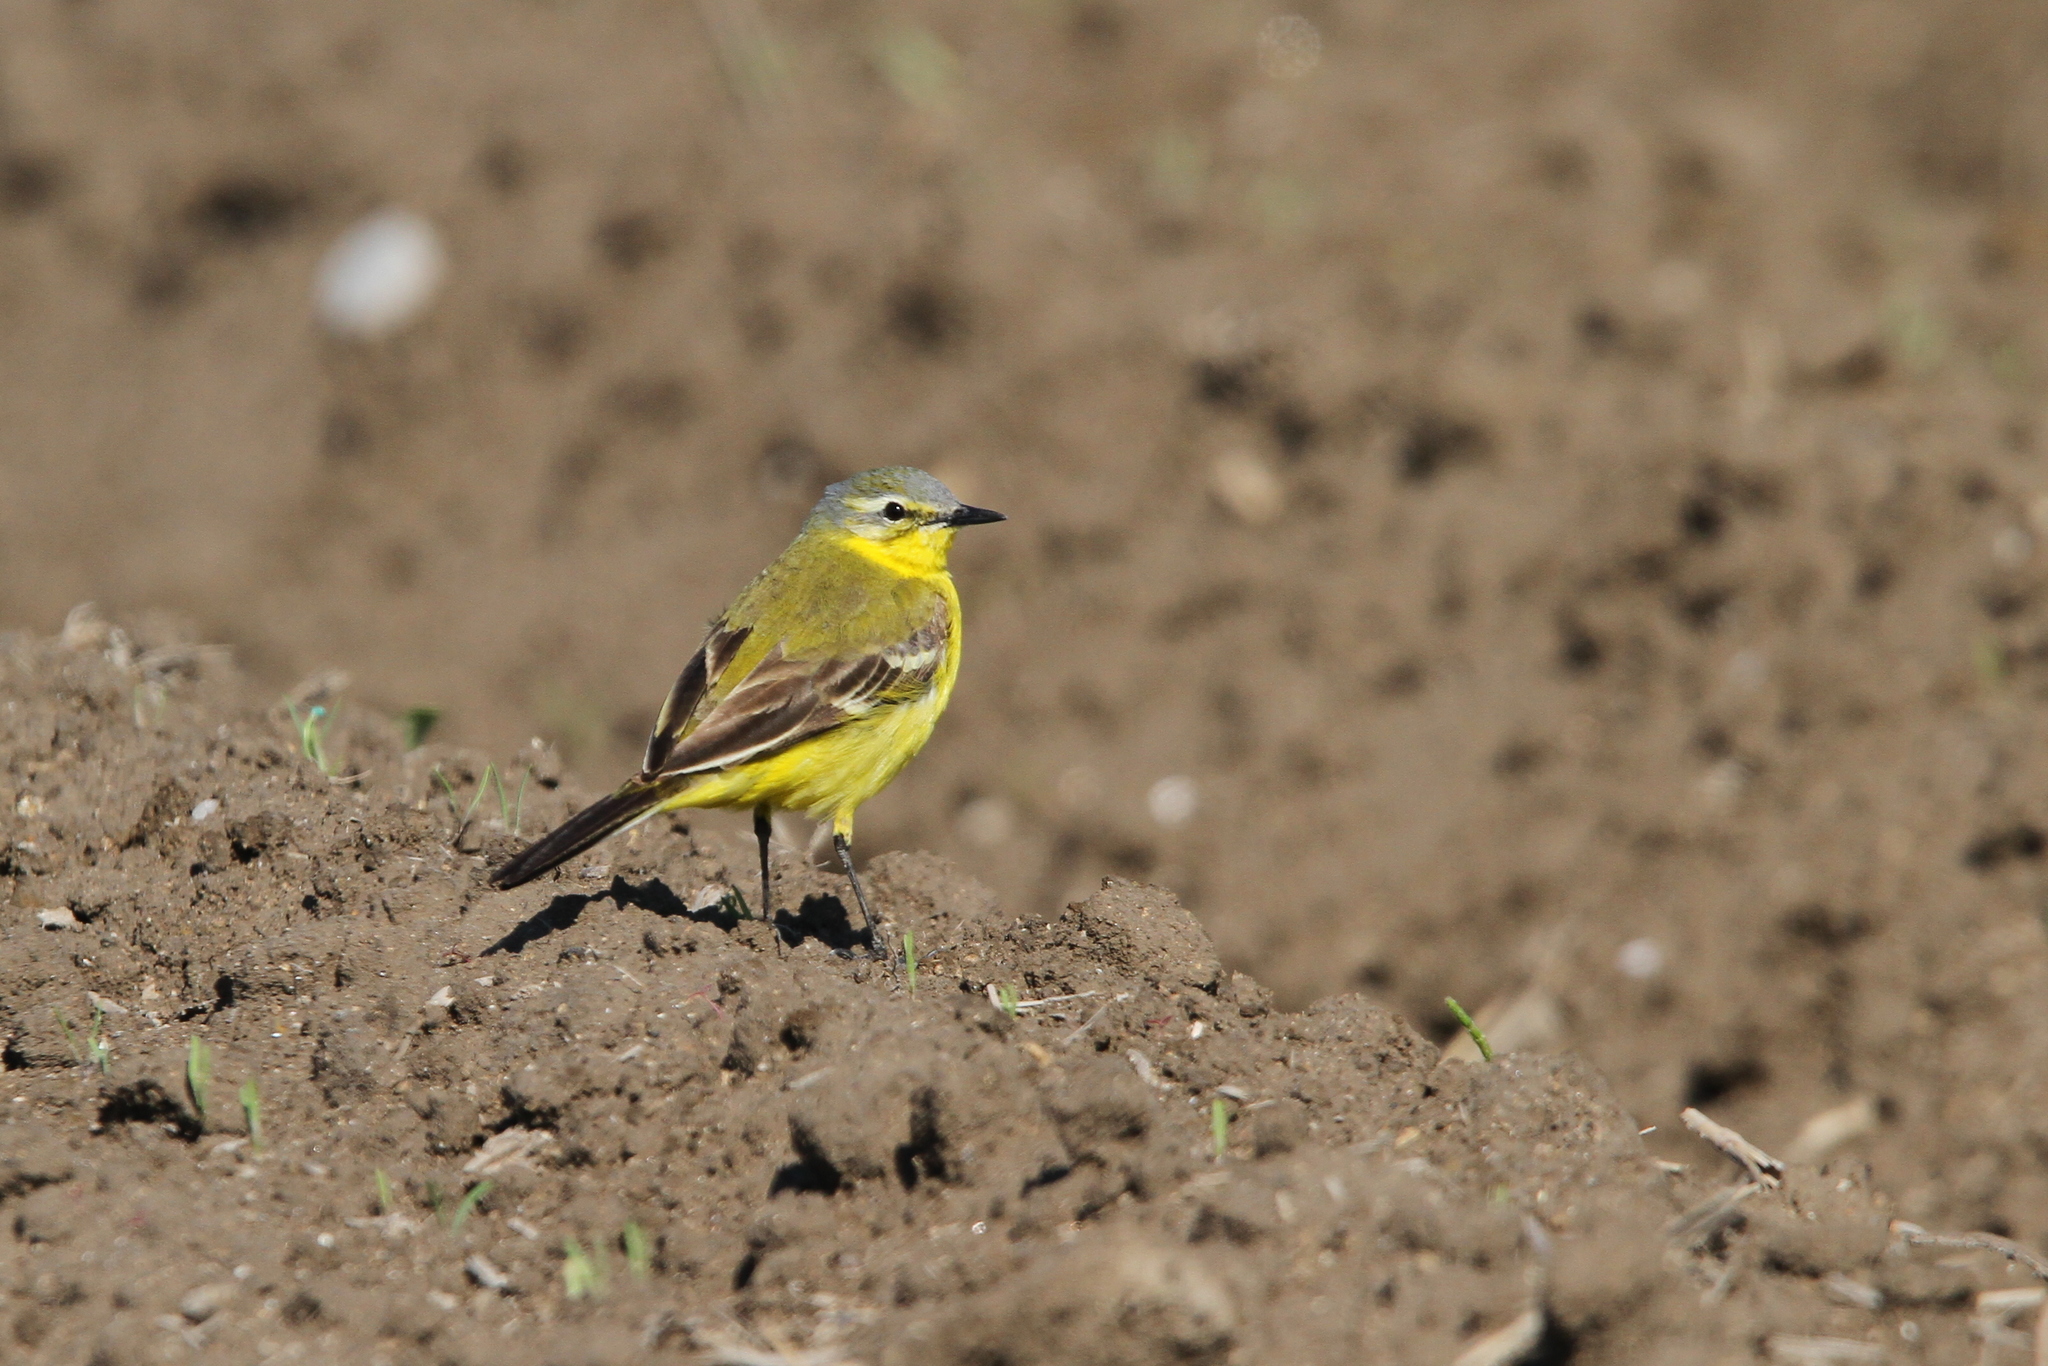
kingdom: Animalia
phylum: Chordata
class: Aves
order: Passeriformes
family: Motacillidae
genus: Motacilla
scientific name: Motacilla flava
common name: Western yellow wagtail
